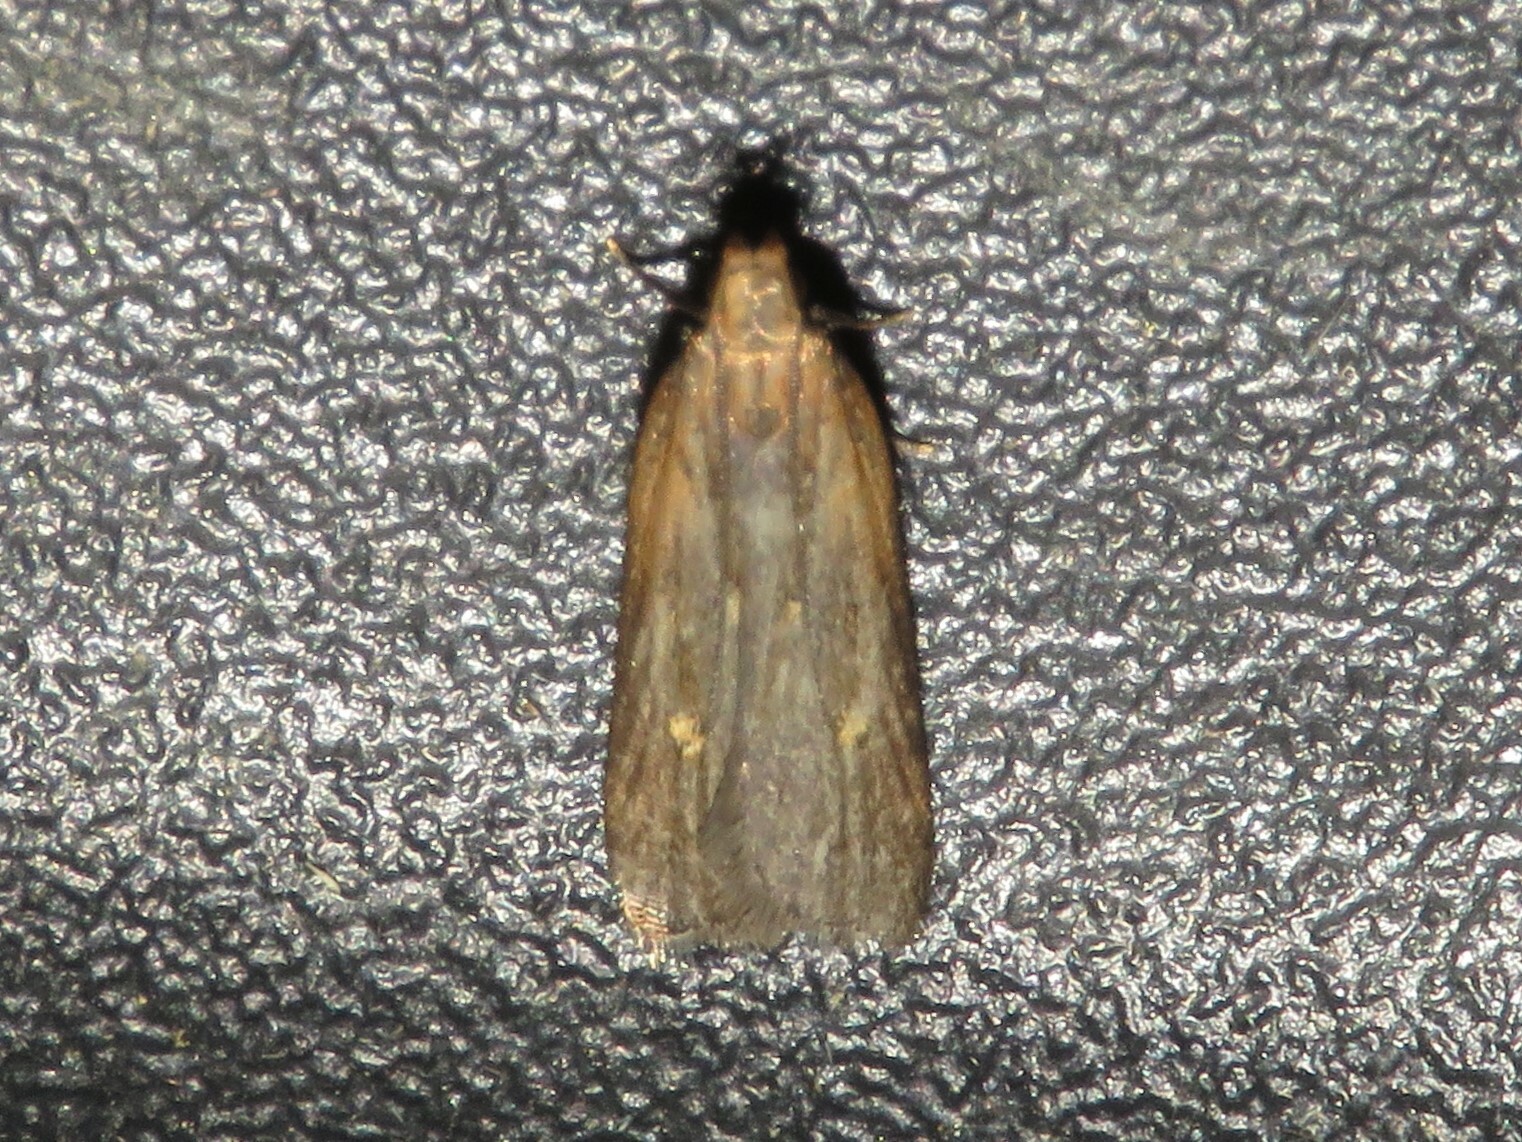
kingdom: Animalia
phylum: Arthropoda
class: Insecta
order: Lepidoptera
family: Gelechiidae
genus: Dichomeris
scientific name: Dichomeris copa
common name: Copa dichomeris moth
